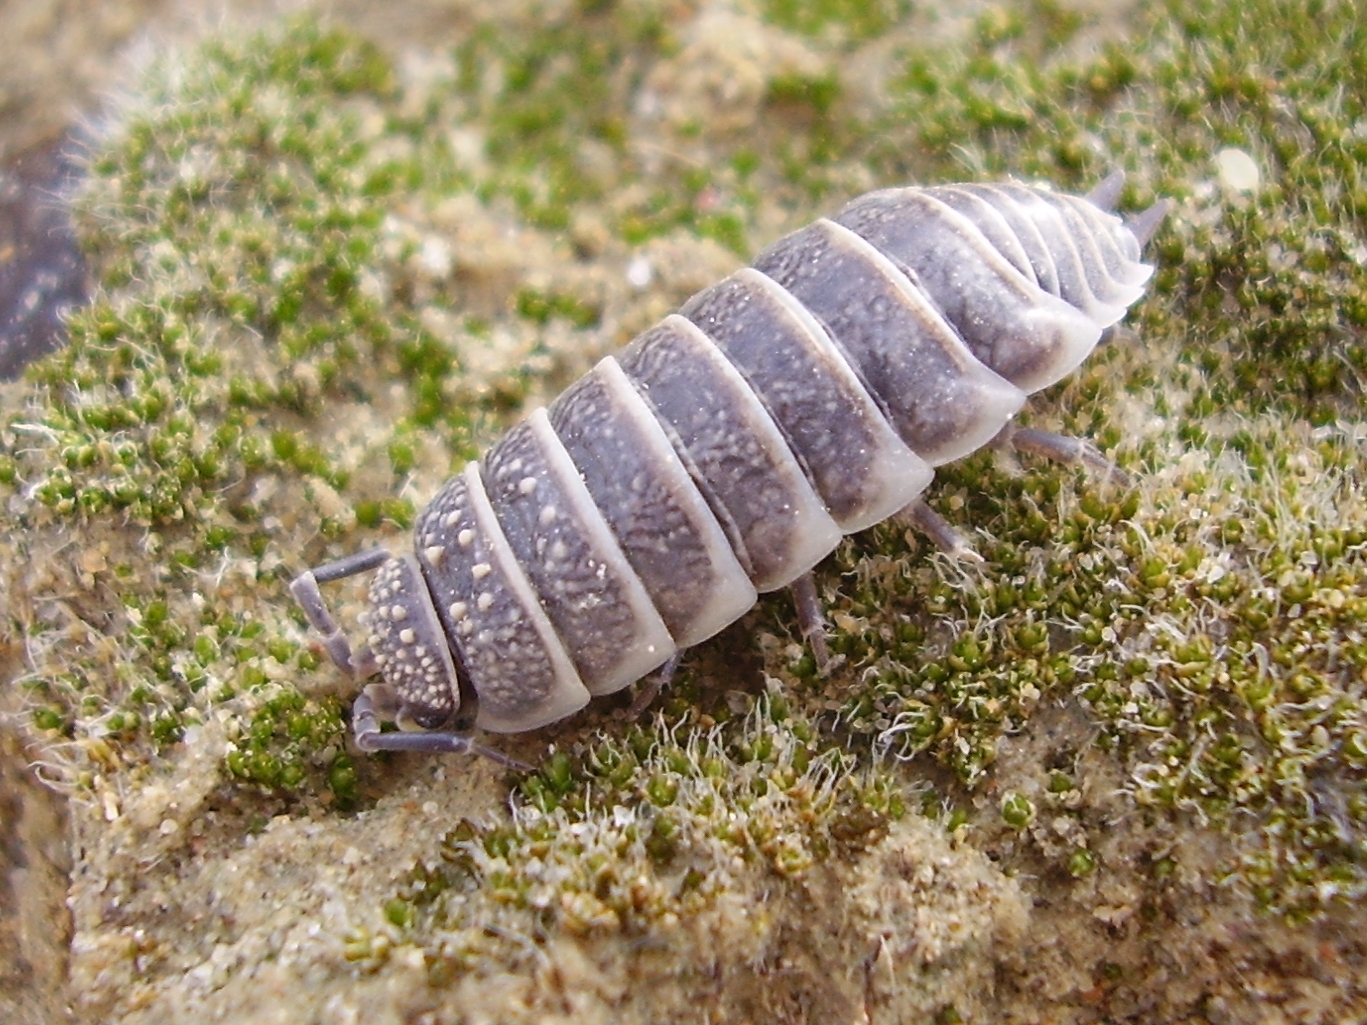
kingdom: Animalia
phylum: Arthropoda
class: Malacostraca
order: Isopoda
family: Agnaridae
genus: Hemilepistus
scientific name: Hemilepistus fedtschenkoi
